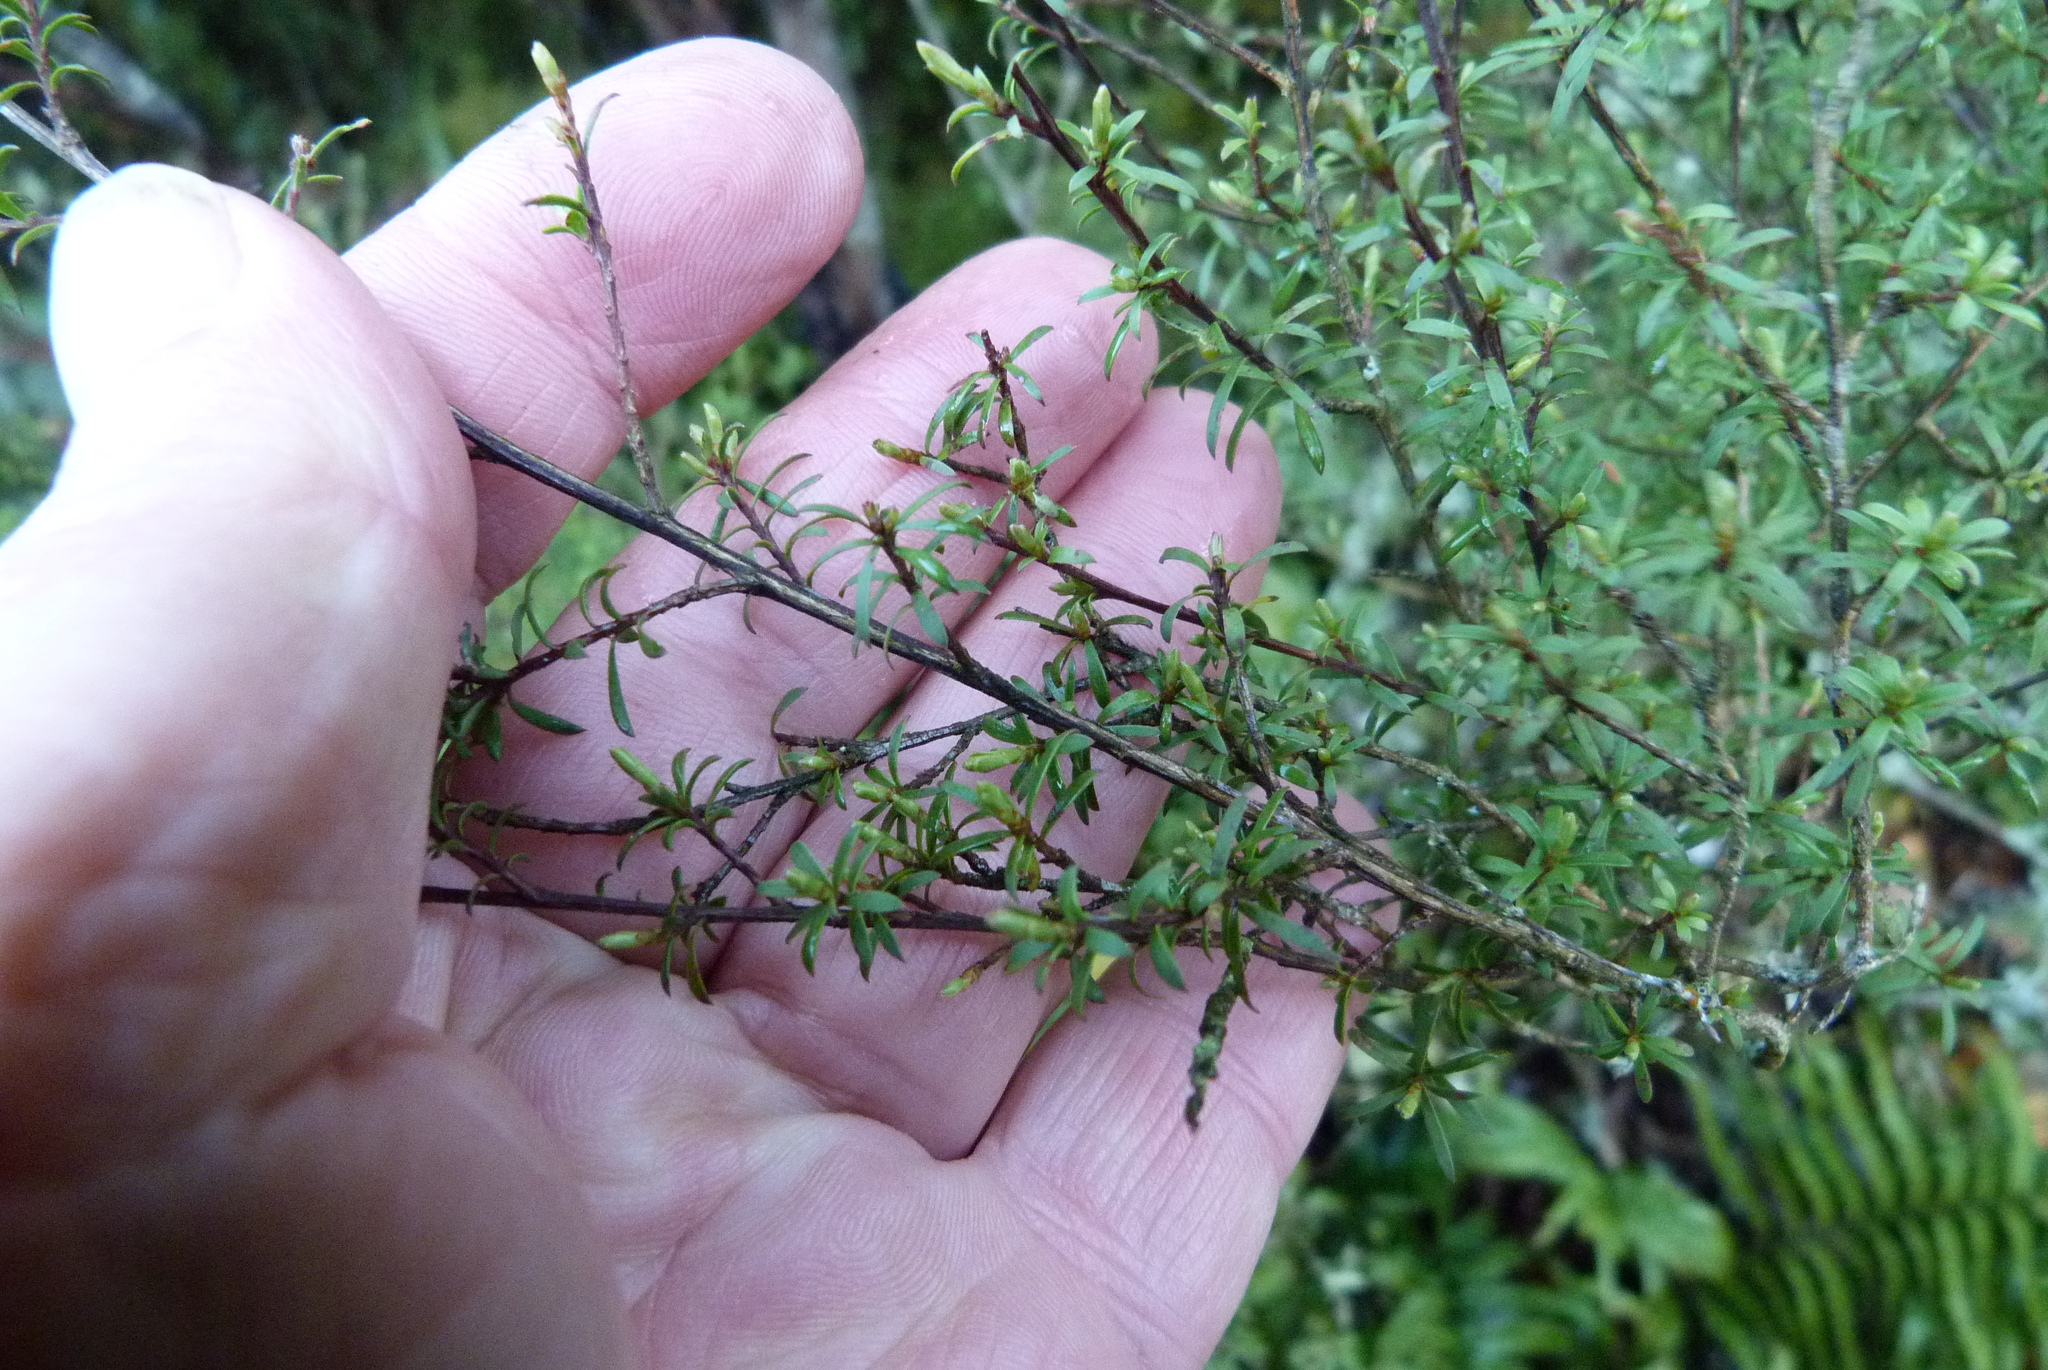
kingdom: Plantae
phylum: Tracheophyta
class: Magnoliopsida
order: Myrtales
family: Myrtaceae
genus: Kunzea
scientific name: Kunzea robusta
